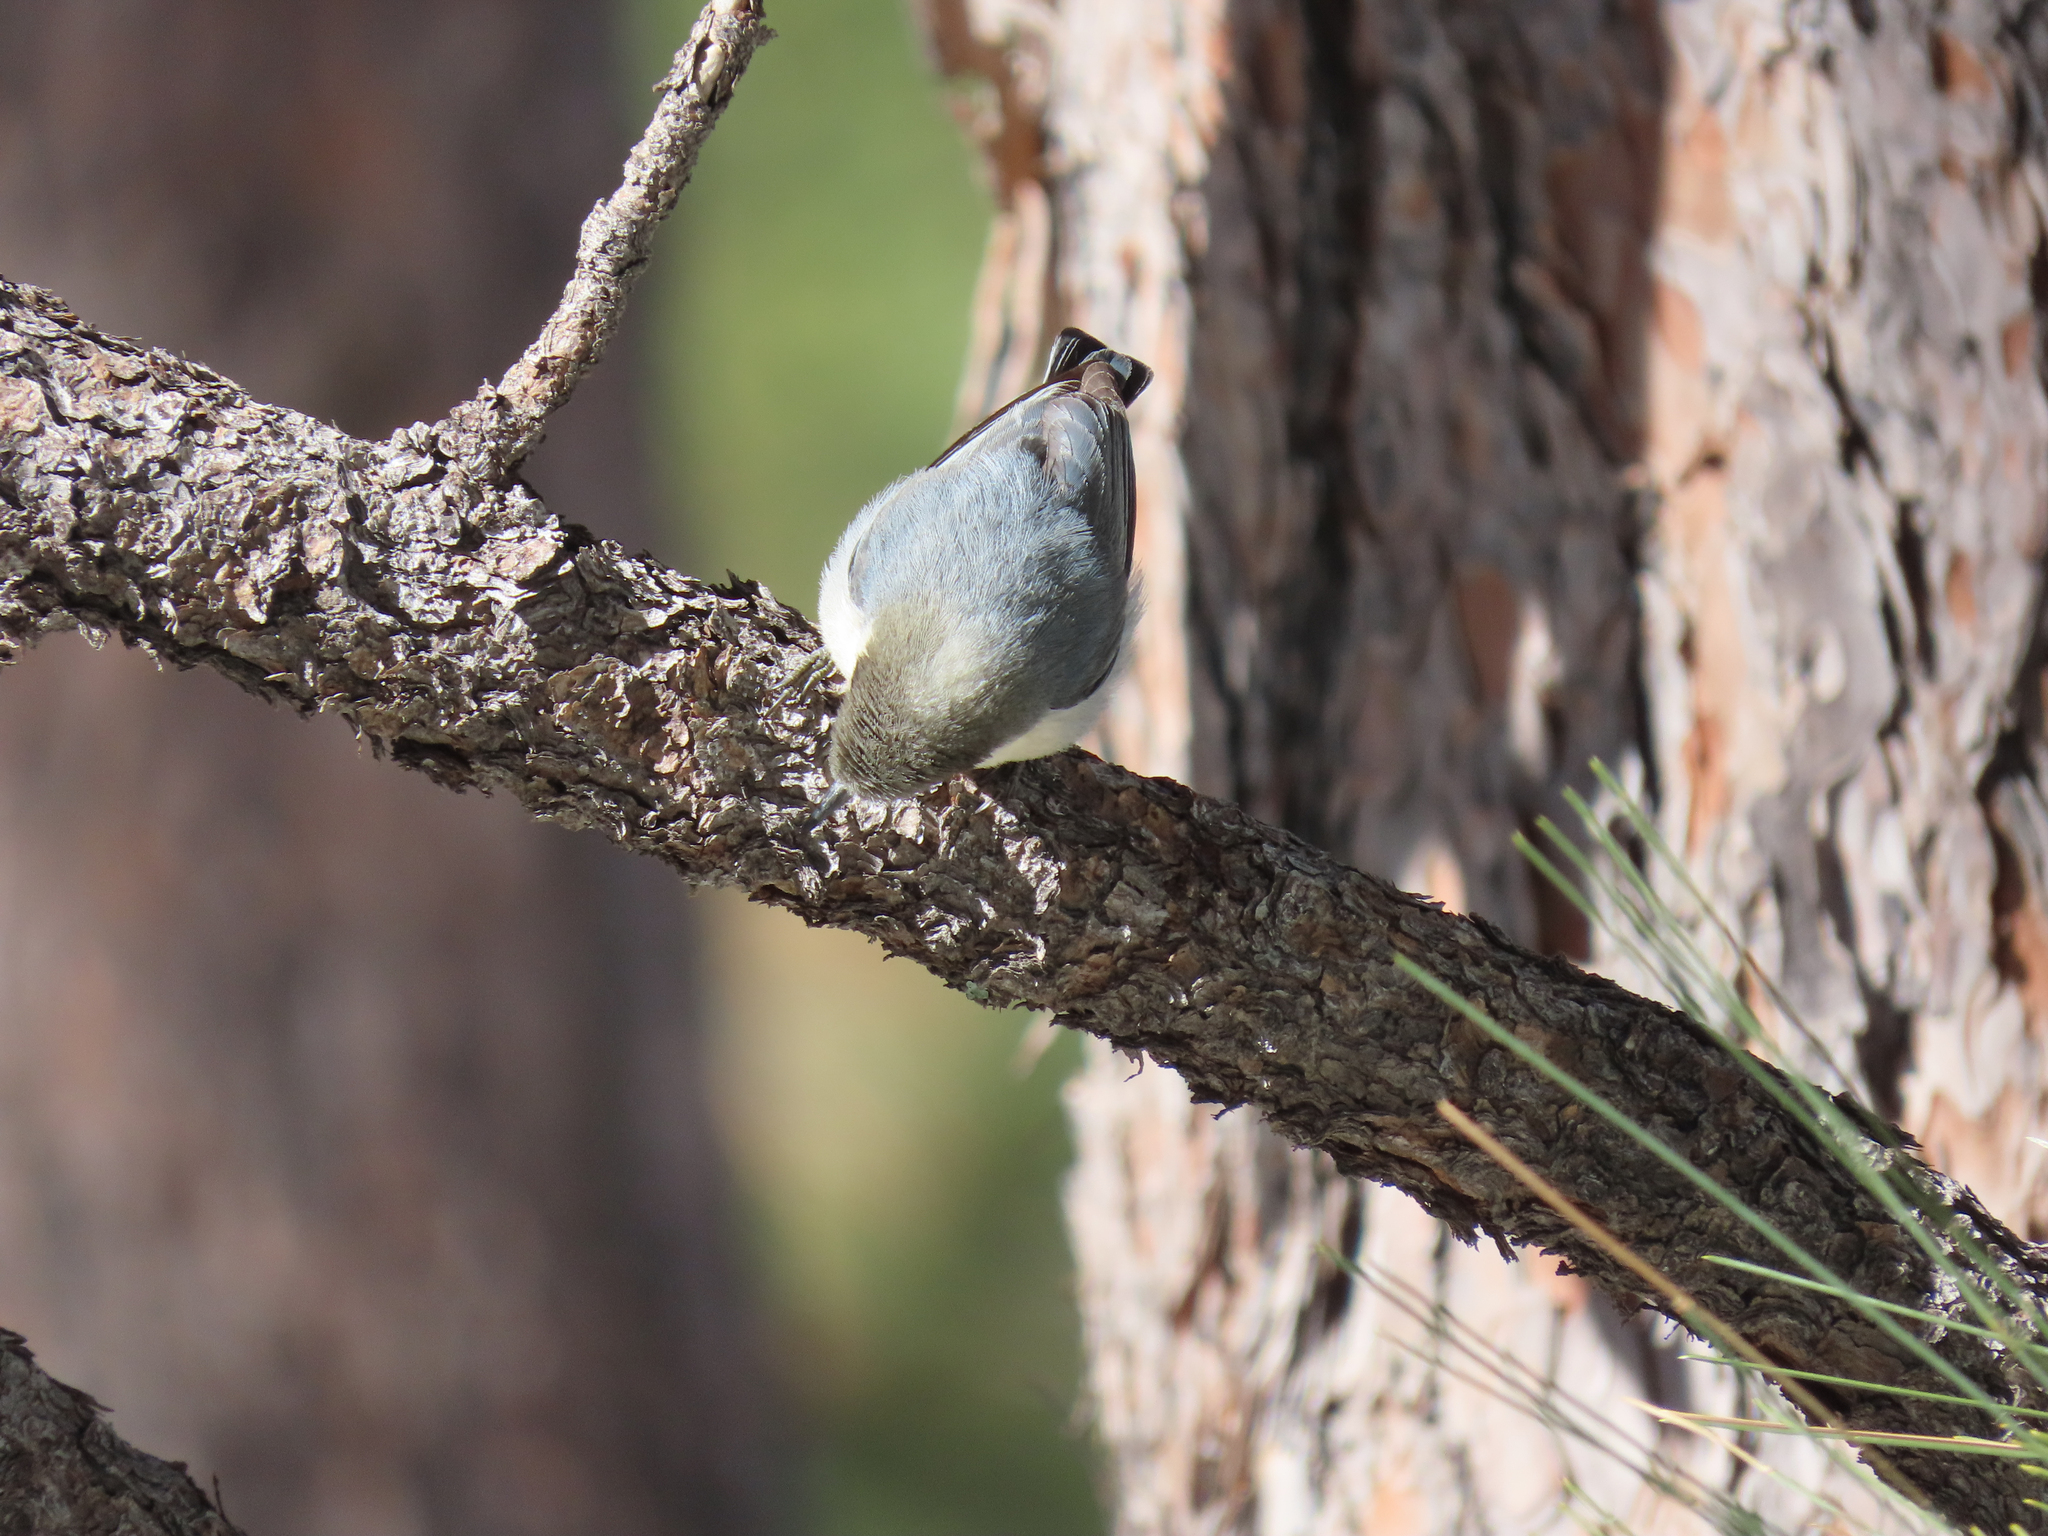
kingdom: Animalia
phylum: Chordata
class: Aves
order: Passeriformes
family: Sittidae
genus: Sitta
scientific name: Sitta pygmaea
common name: Pygmy nuthatch
